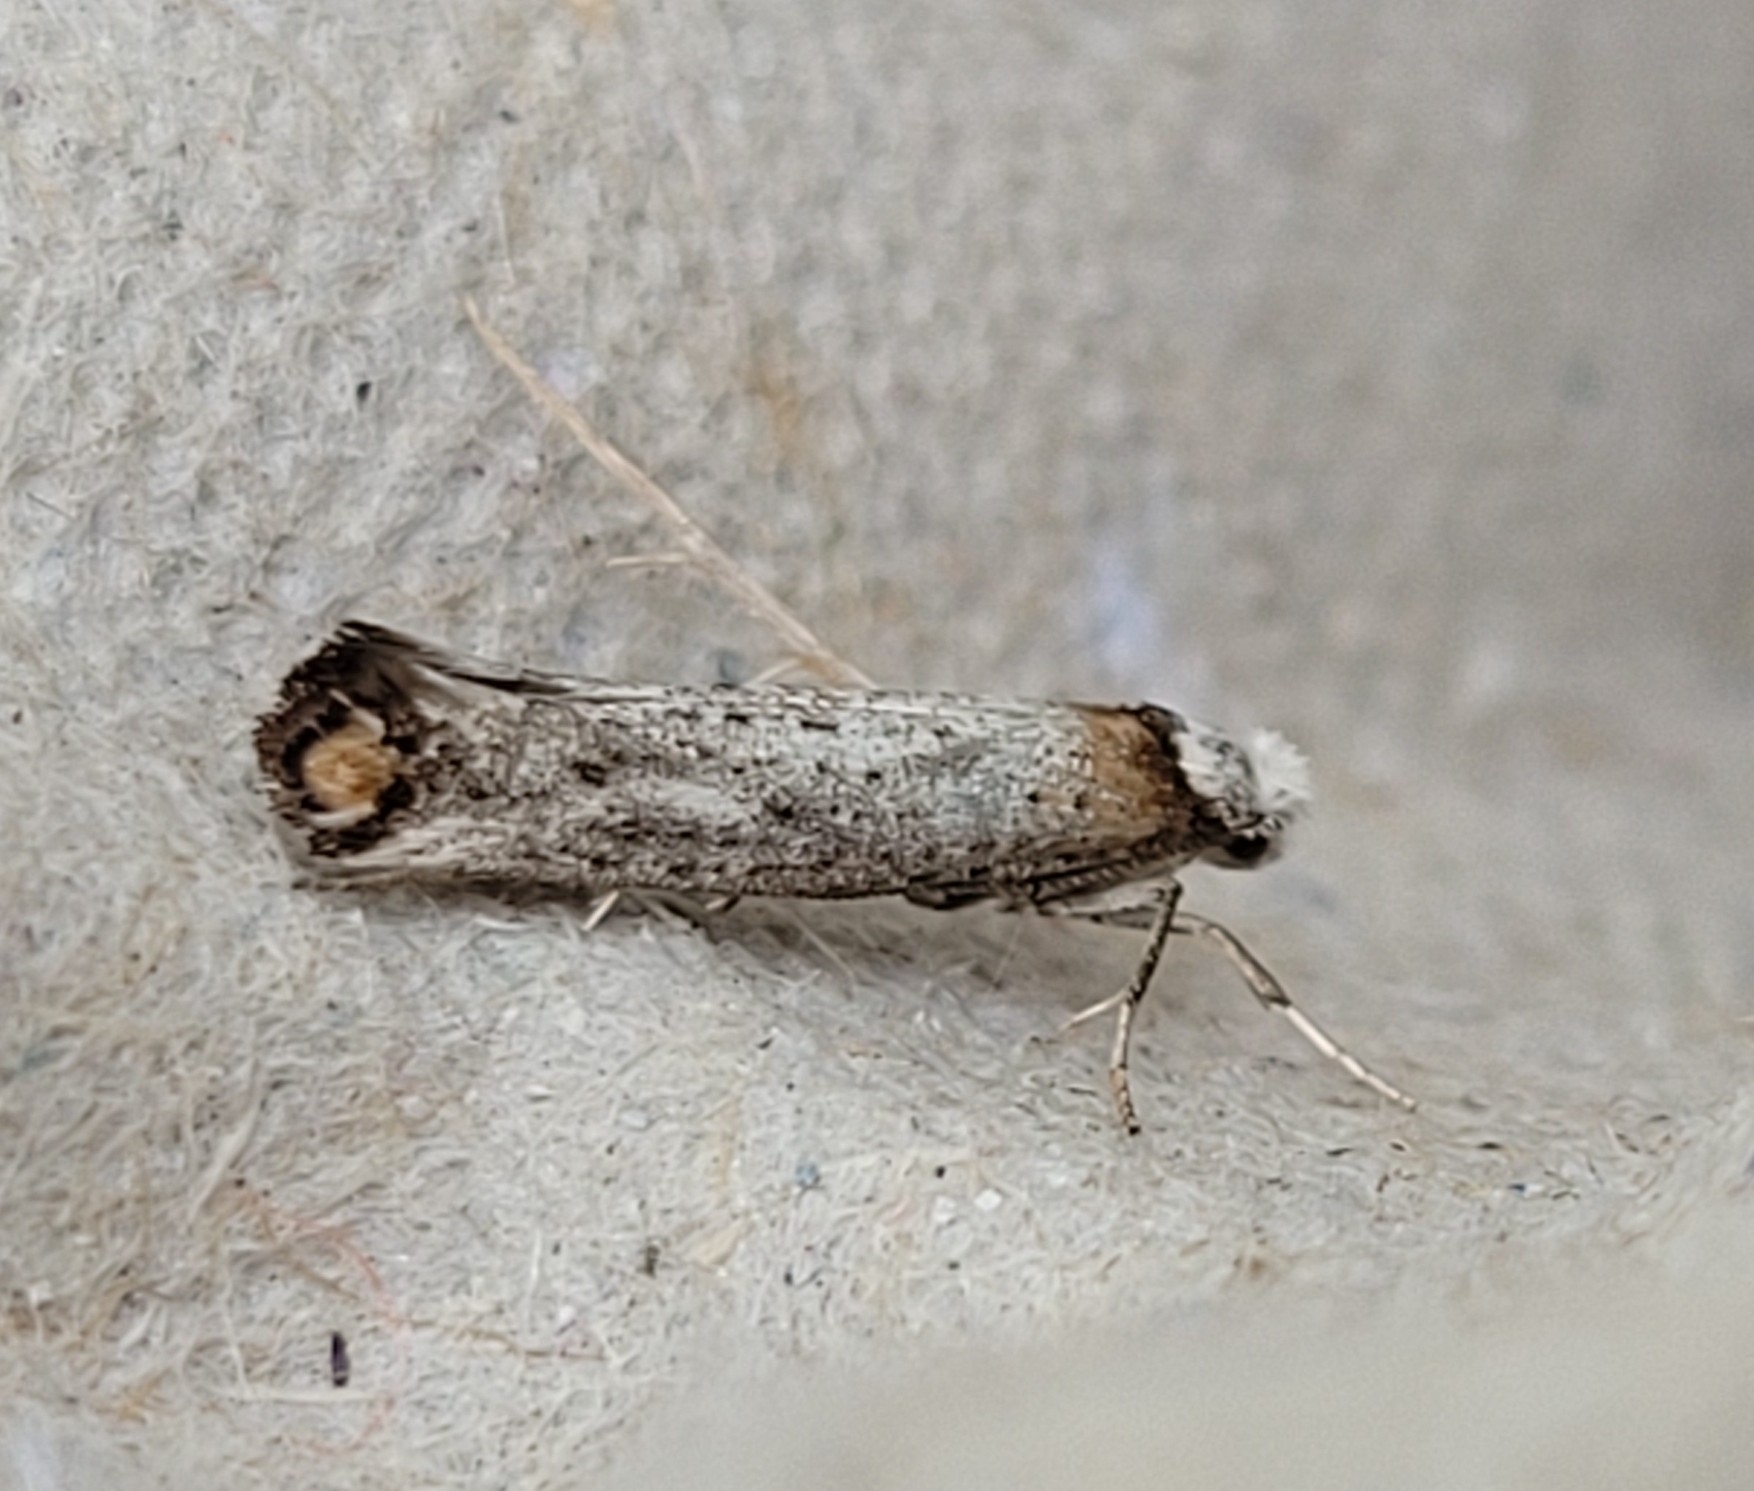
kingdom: Animalia
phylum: Arthropoda
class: Insecta
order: Lepidoptera
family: Yponomeutidae
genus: Pseudoswammerdamia
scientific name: Pseudoswammerdamia combinella
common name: Copper-tipped ermine
